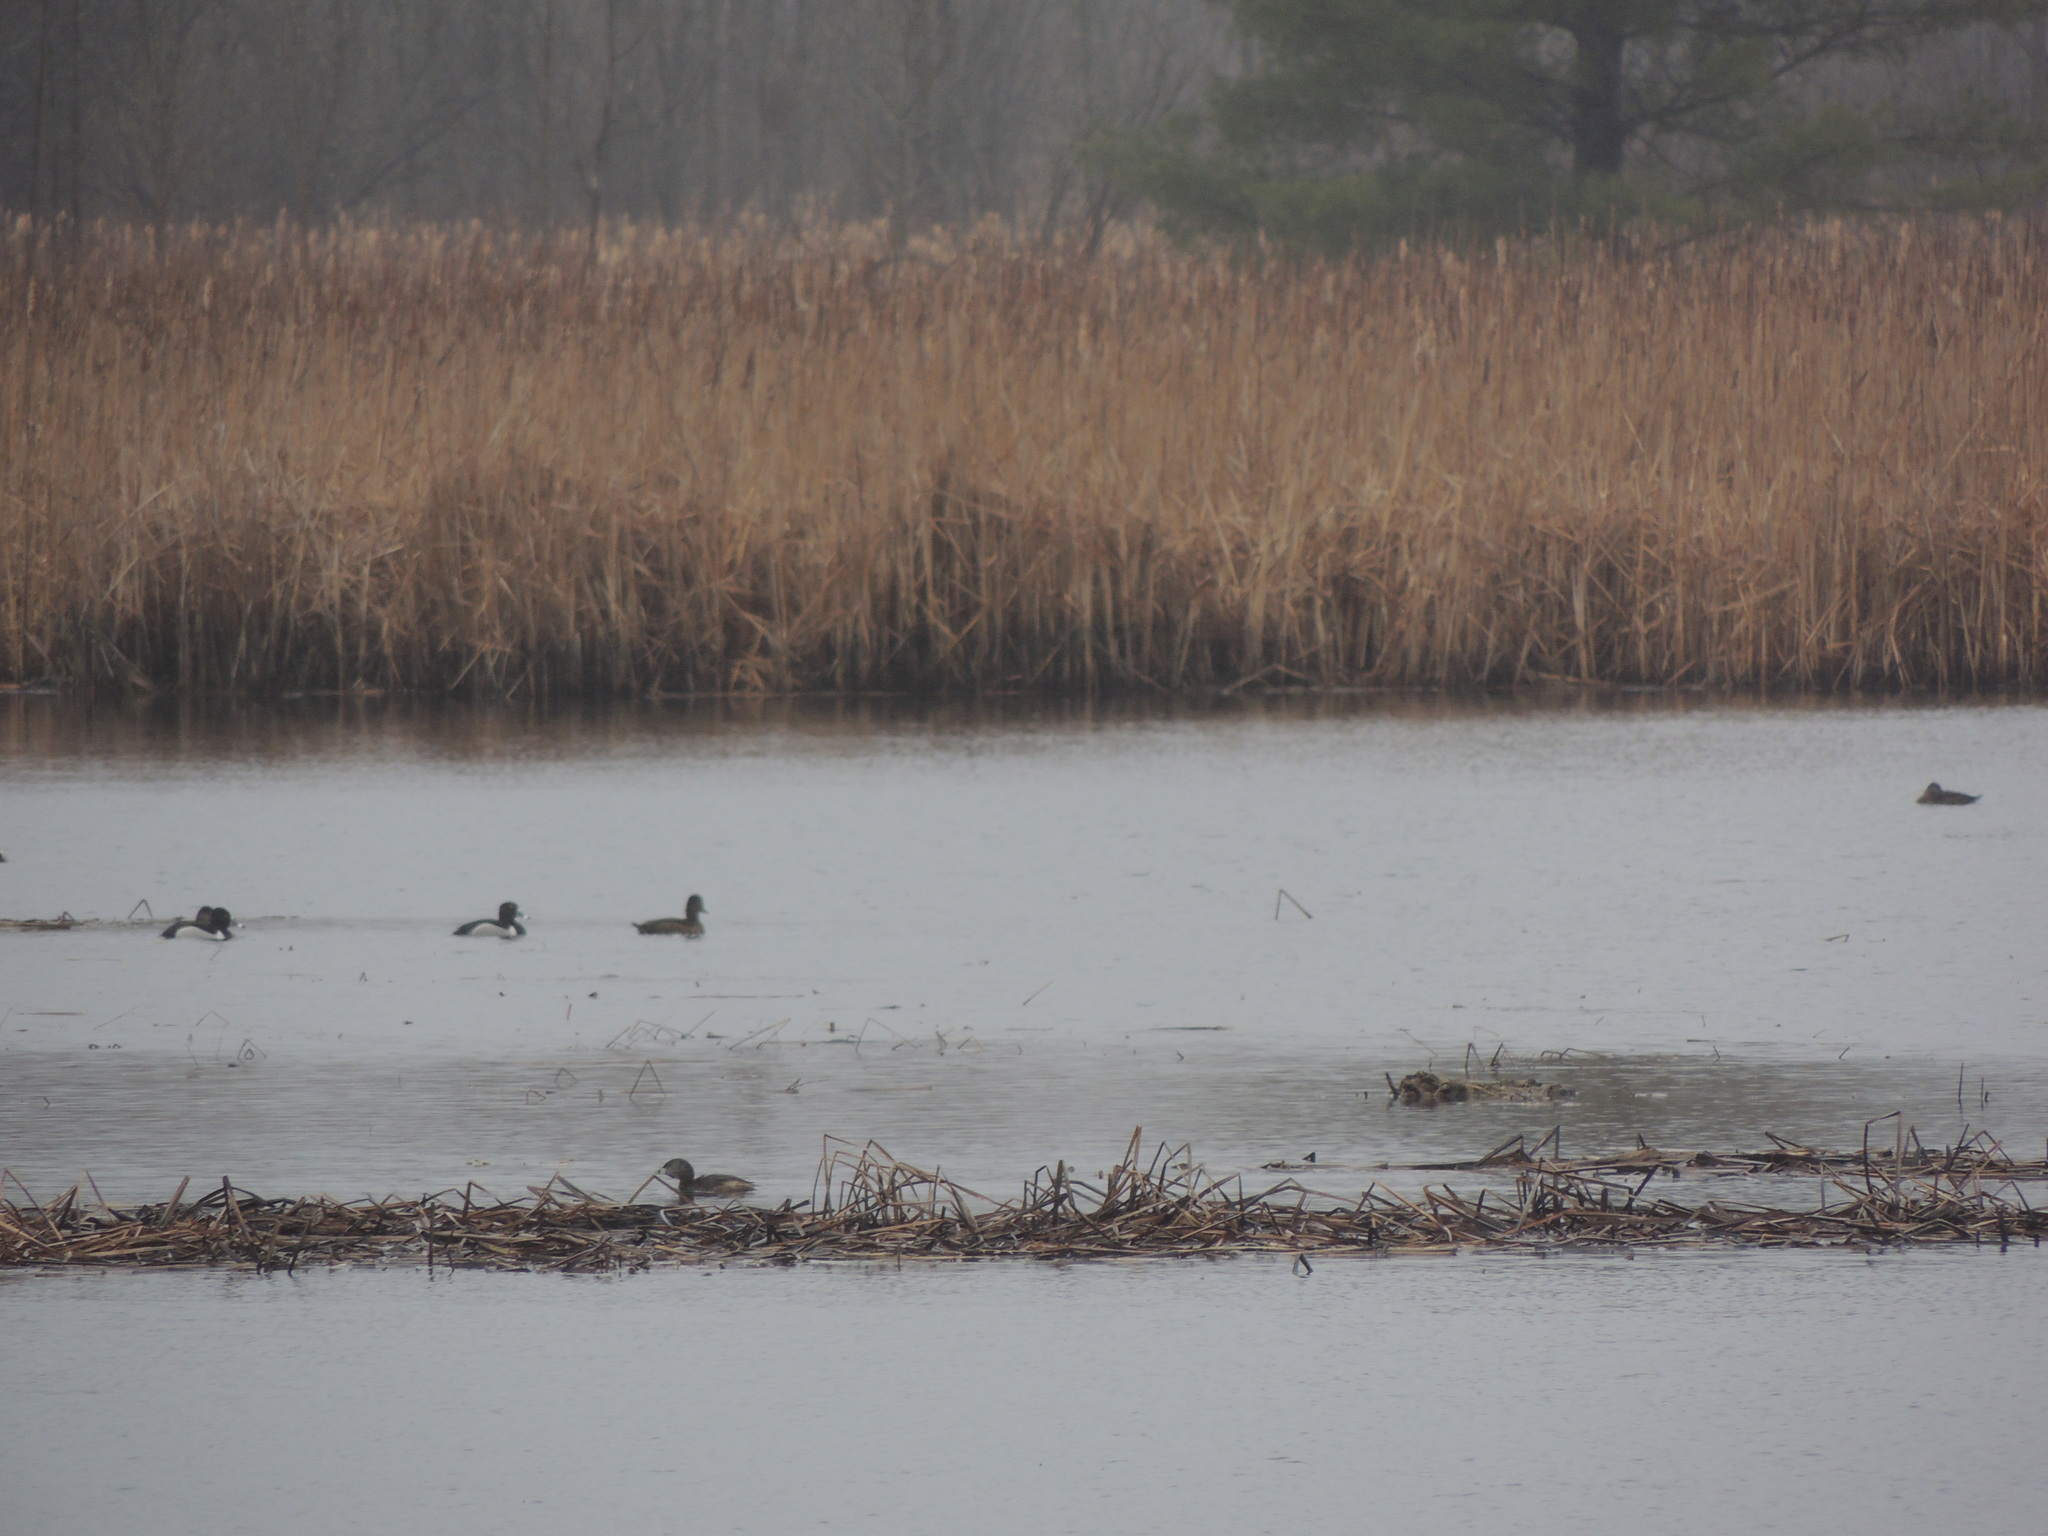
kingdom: Animalia
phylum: Chordata
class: Aves
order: Podicipediformes
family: Podicipedidae
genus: Podilymbus
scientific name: Podilymbus podiceps
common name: Pied-billed grebe
